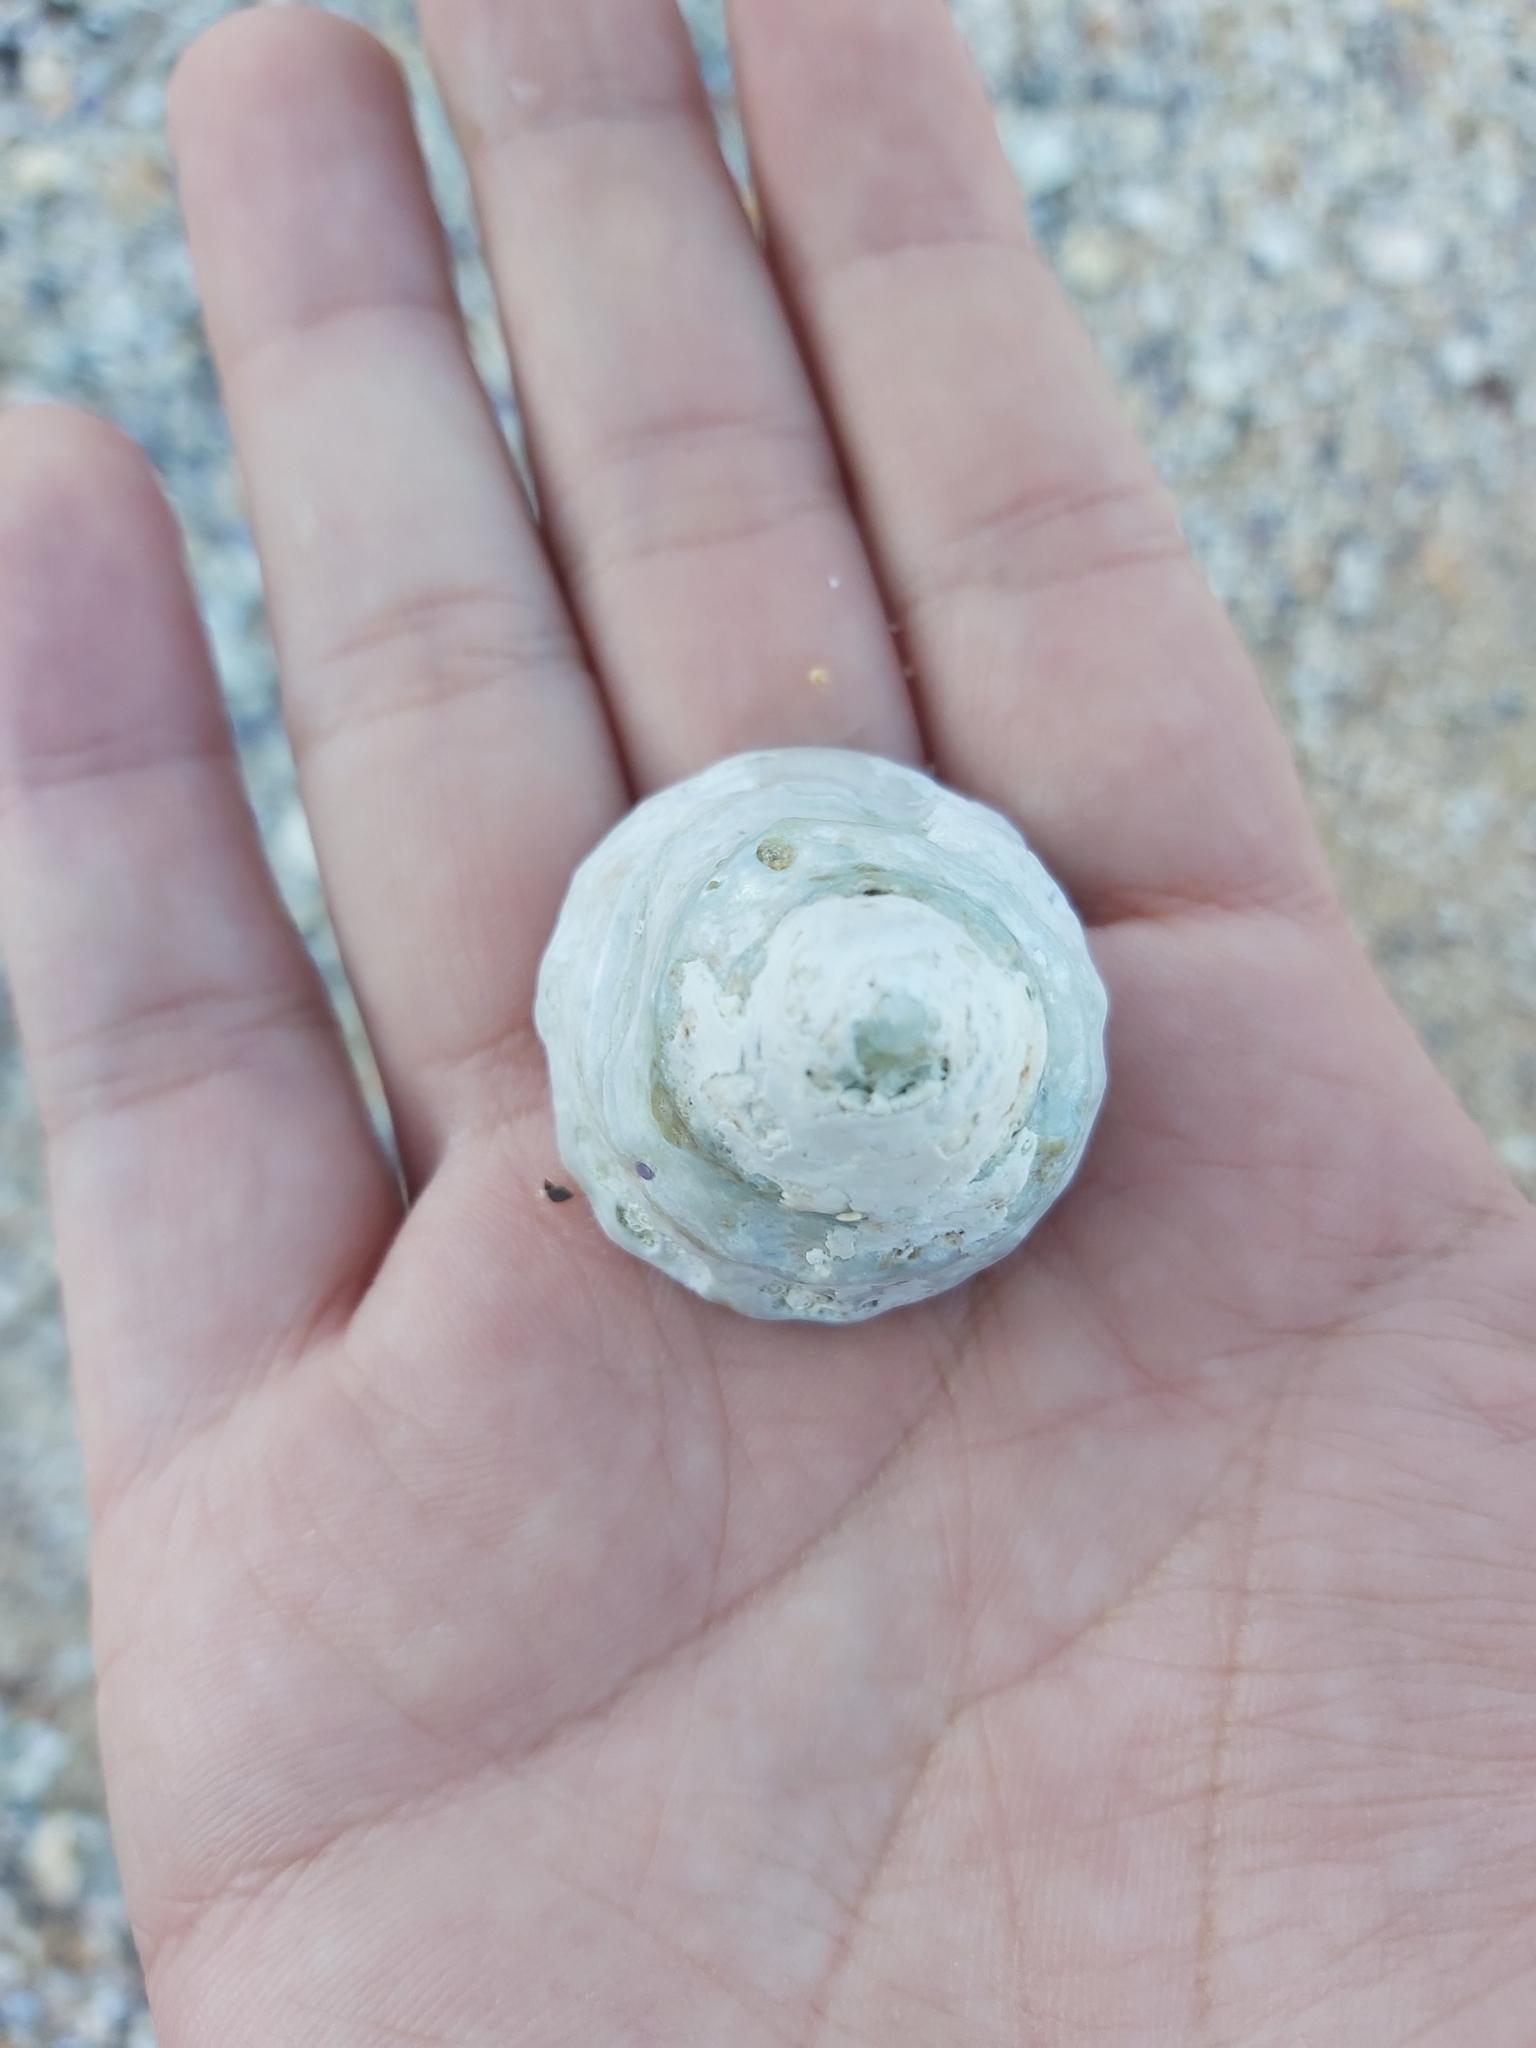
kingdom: Animalia
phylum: Mollusca
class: Gastropoda
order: Trochida
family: Turbinidae
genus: Astralium
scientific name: Astralium tentoriiforme
